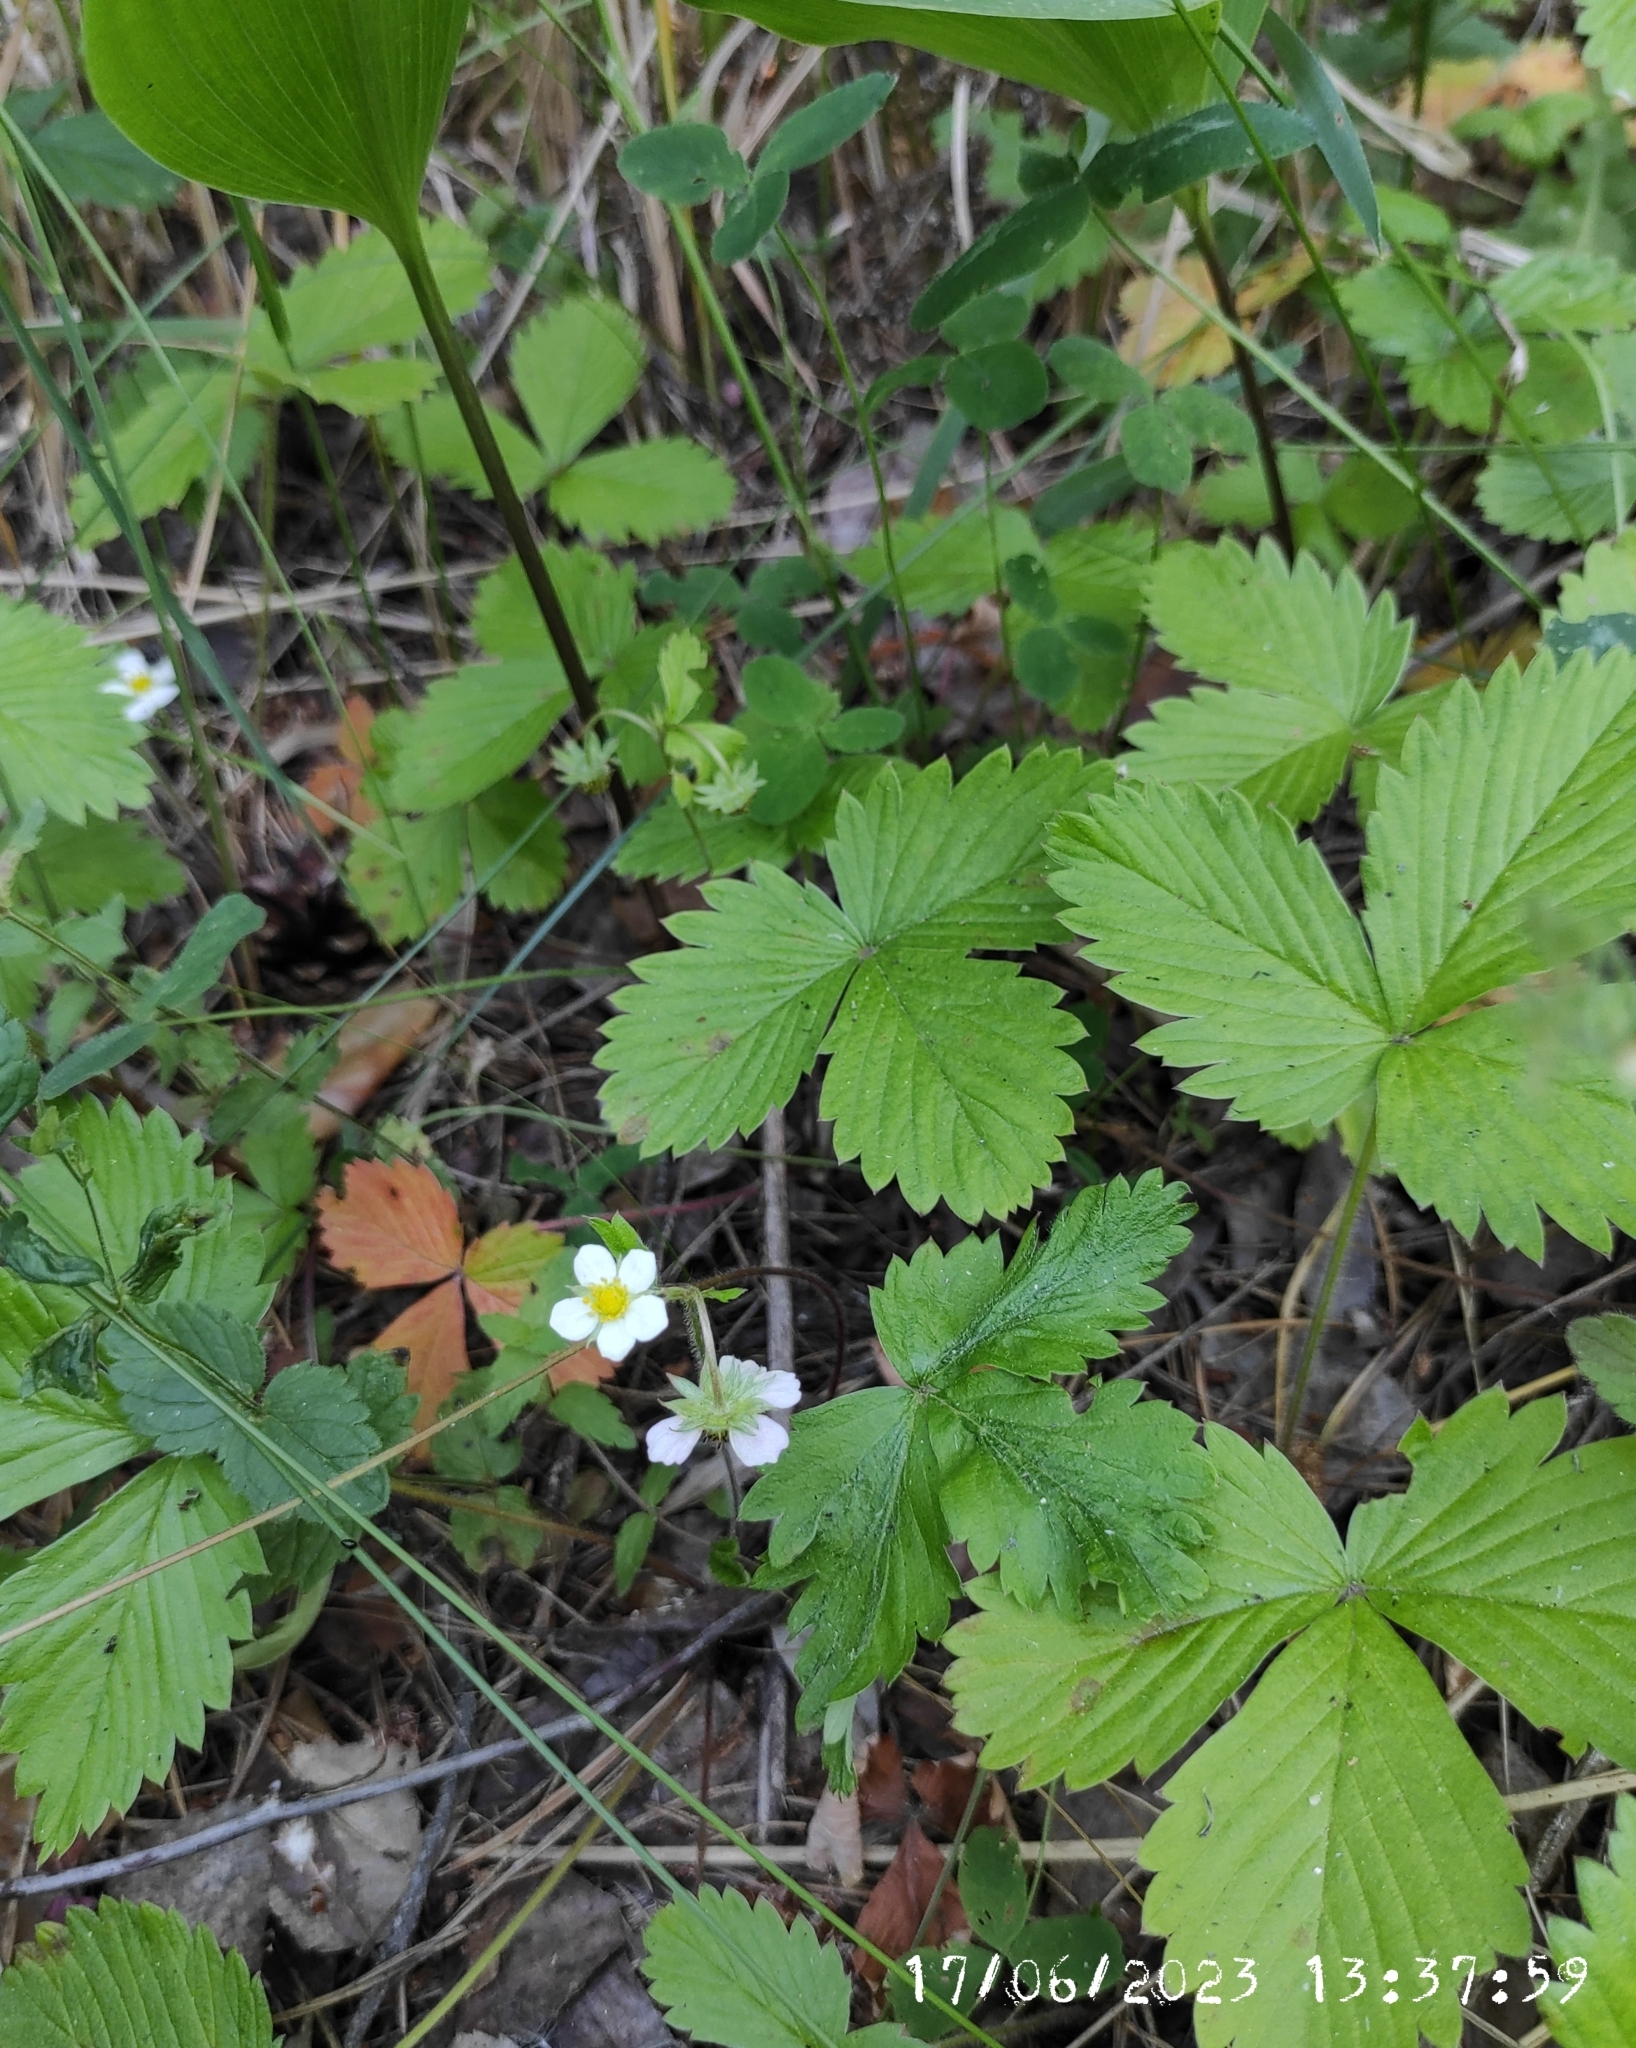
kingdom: Plantae
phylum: Tracheophyta
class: Magnoliopsida
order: Rosales
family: Rosaceae
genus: Fragaria
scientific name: Fragaria vesca
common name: Wild strawberry
